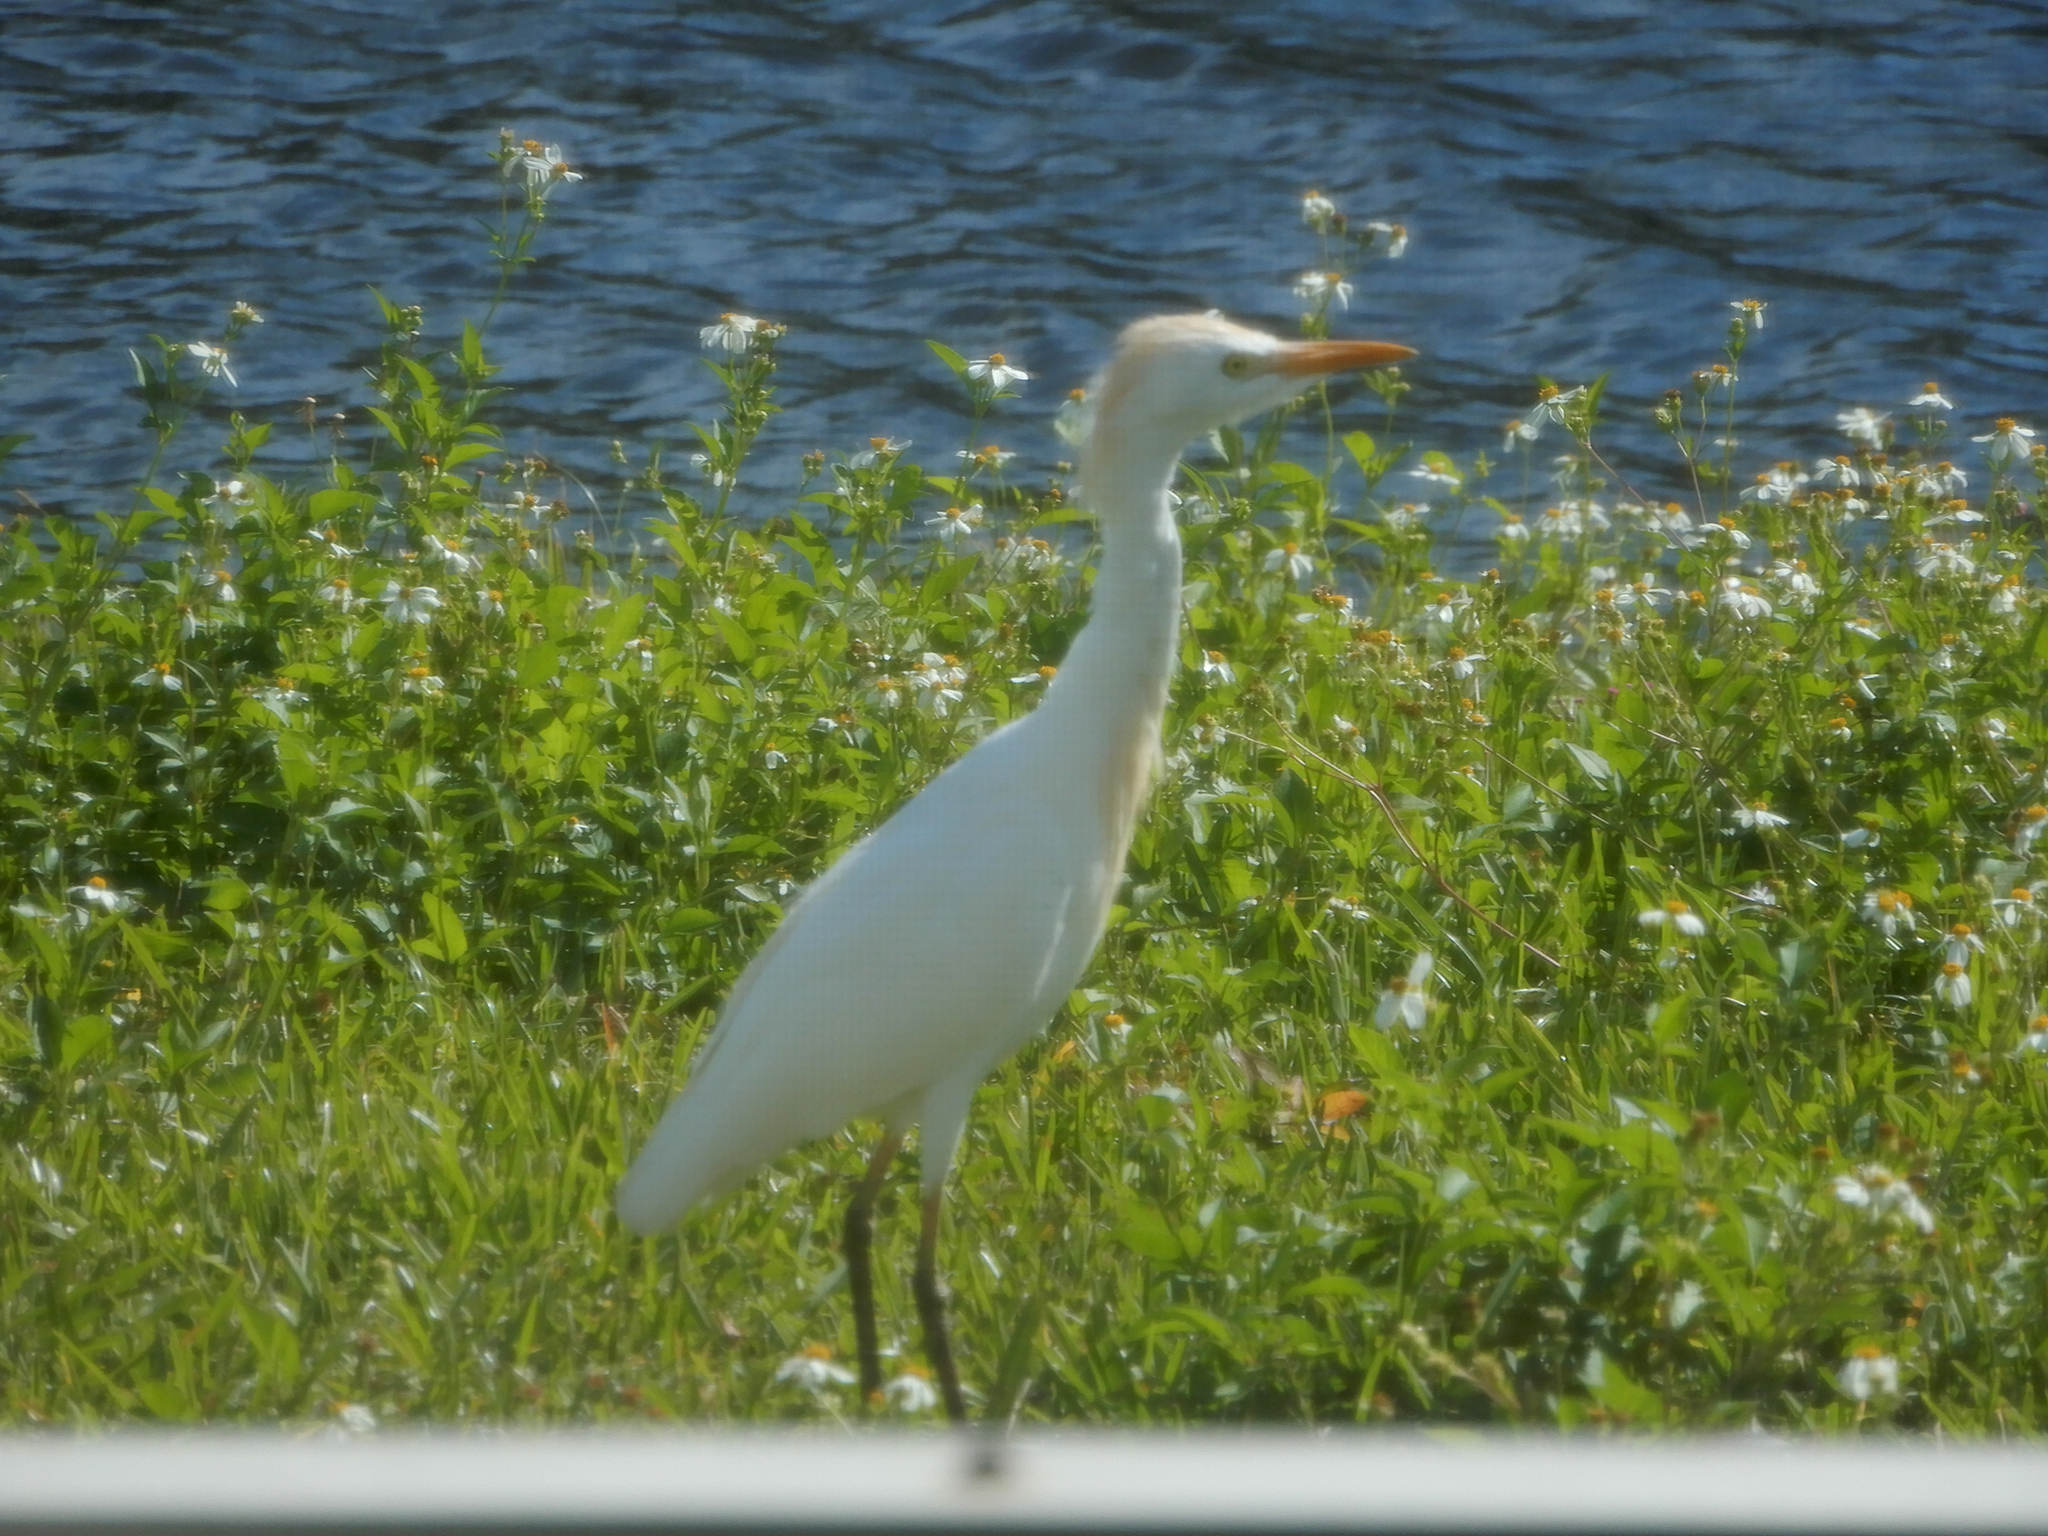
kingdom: Animalia
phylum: Chordata
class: Aves
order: Pelecaniformes
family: Ardeidae
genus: Bubulcus
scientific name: Bubulcus ibis
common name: Cattle egret
